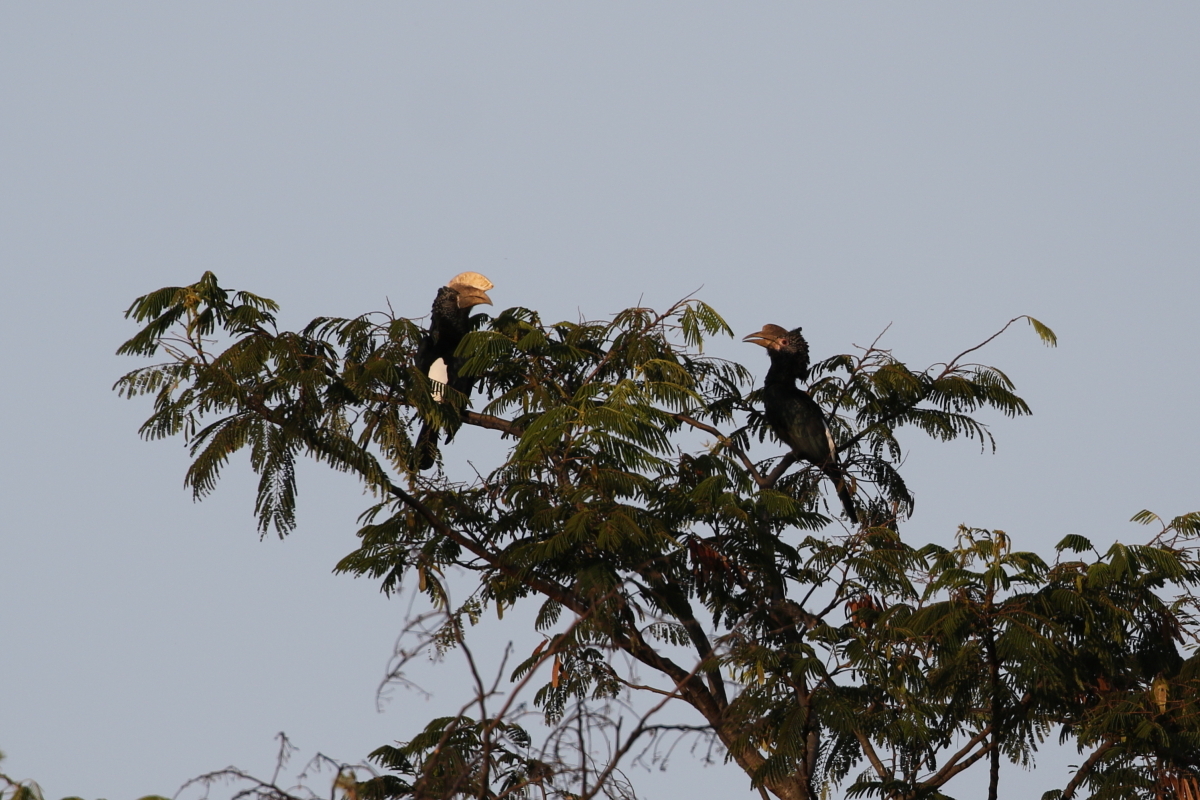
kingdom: Animalia
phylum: Chordata
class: Aves
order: Bucerotiformes
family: Bucerotidae
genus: Bycanistes
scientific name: Bycanistes brevis
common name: Silvery-cheeked hornbill
